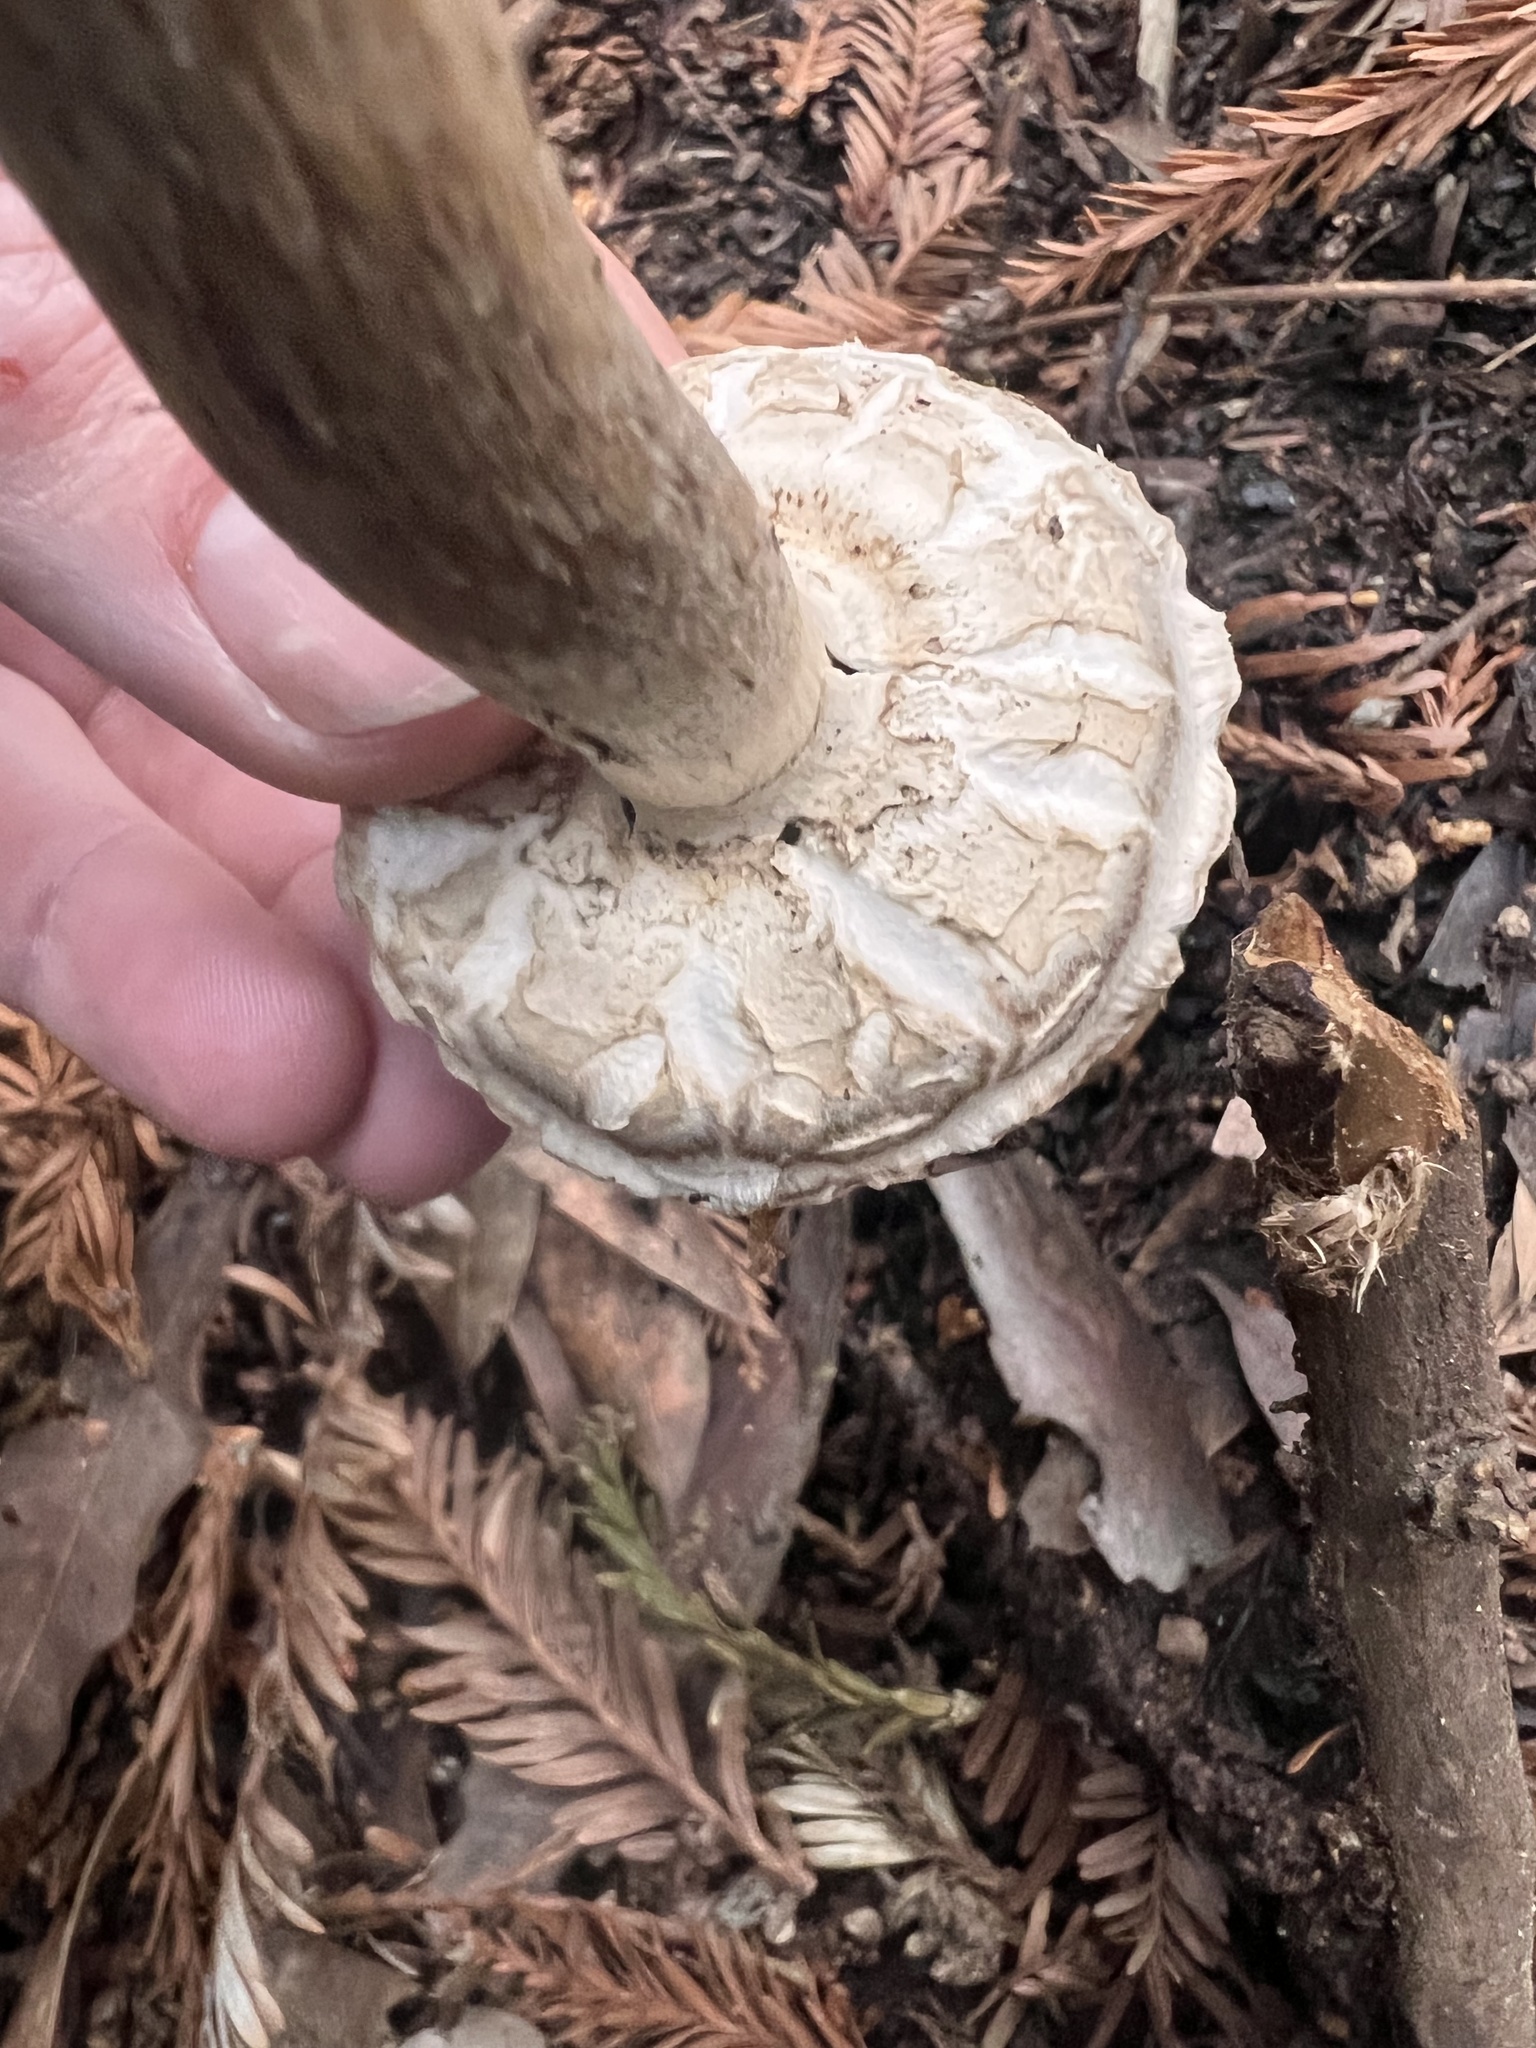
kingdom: Fungi
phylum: Basidiomycota
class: Agaricomycetes
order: Agaricales
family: Agaricaceae
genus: Chlorophyllum
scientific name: Chlorophyllum brunneum
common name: Brown parasol
